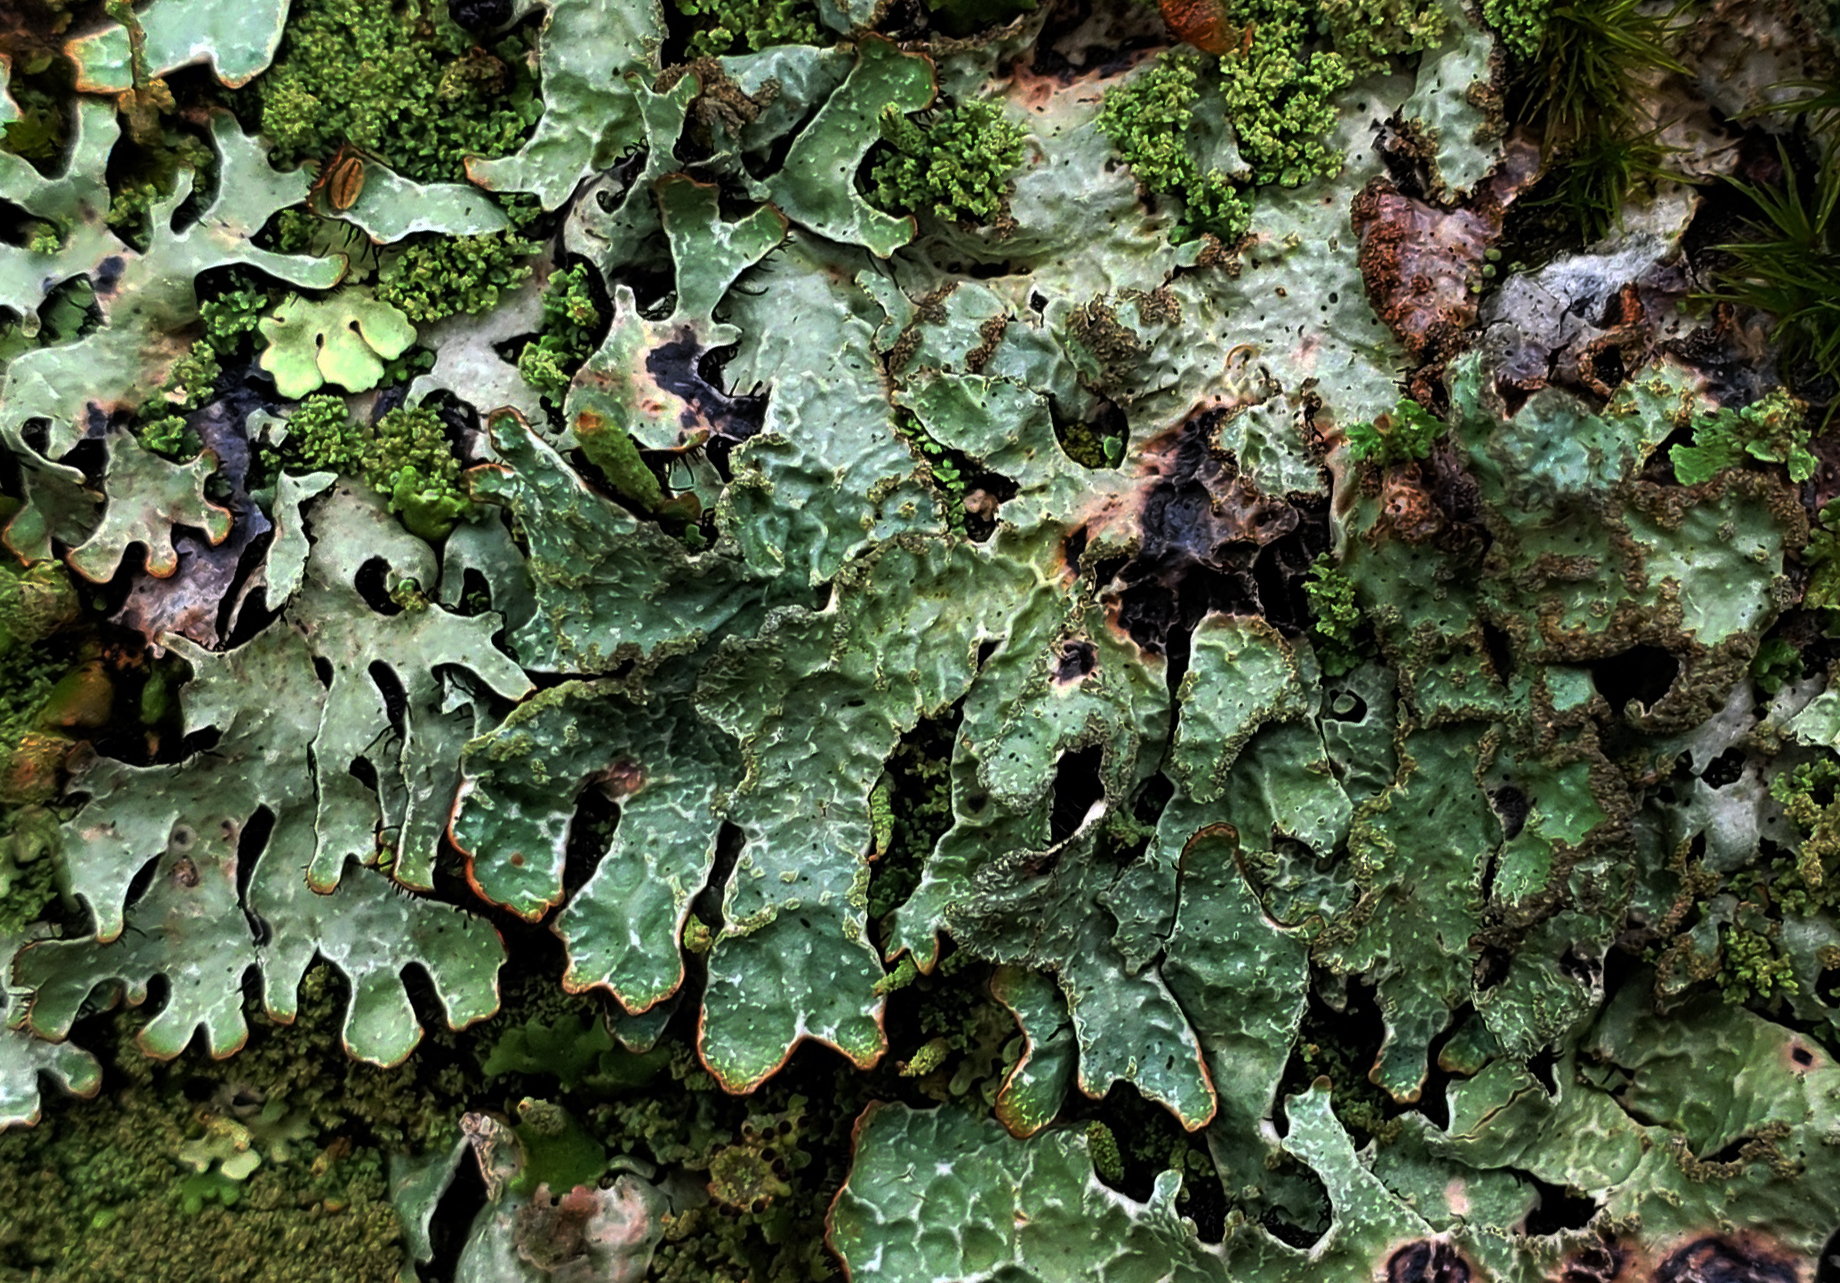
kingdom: Fungi
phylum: Ascomycota
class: Lecanoromycetes
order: Lecanorales
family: Parmeliaceae
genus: Parmelia
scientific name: Parmelia sulcata
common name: Netted shield lichen
